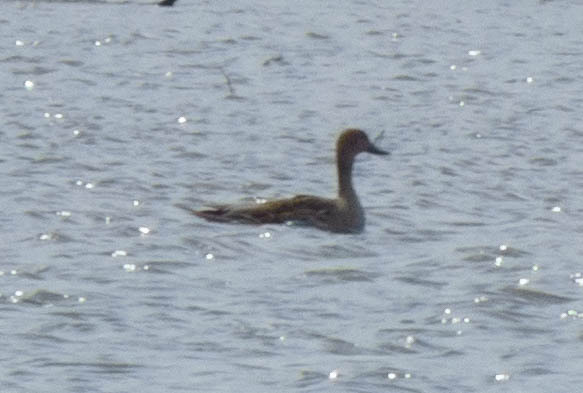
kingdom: Animalia
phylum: Chordata
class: Aves
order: Anseriformes
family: Anatidae
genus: Anas
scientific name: Anas acuta
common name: Northern pintail
